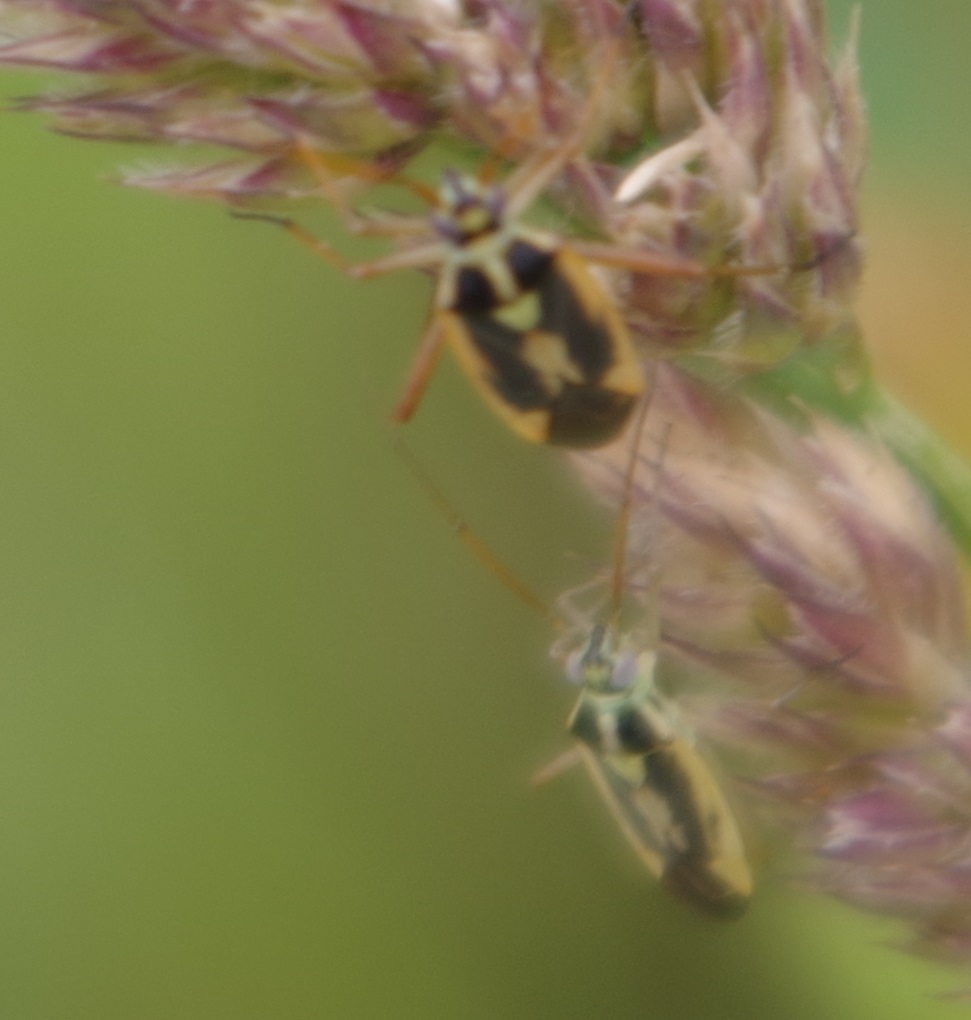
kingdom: Animalia
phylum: Arthropoda
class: Insecta
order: Hemiptera
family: Miridae
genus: Stenotus
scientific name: Stenotus binotatus
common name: Plant bug
